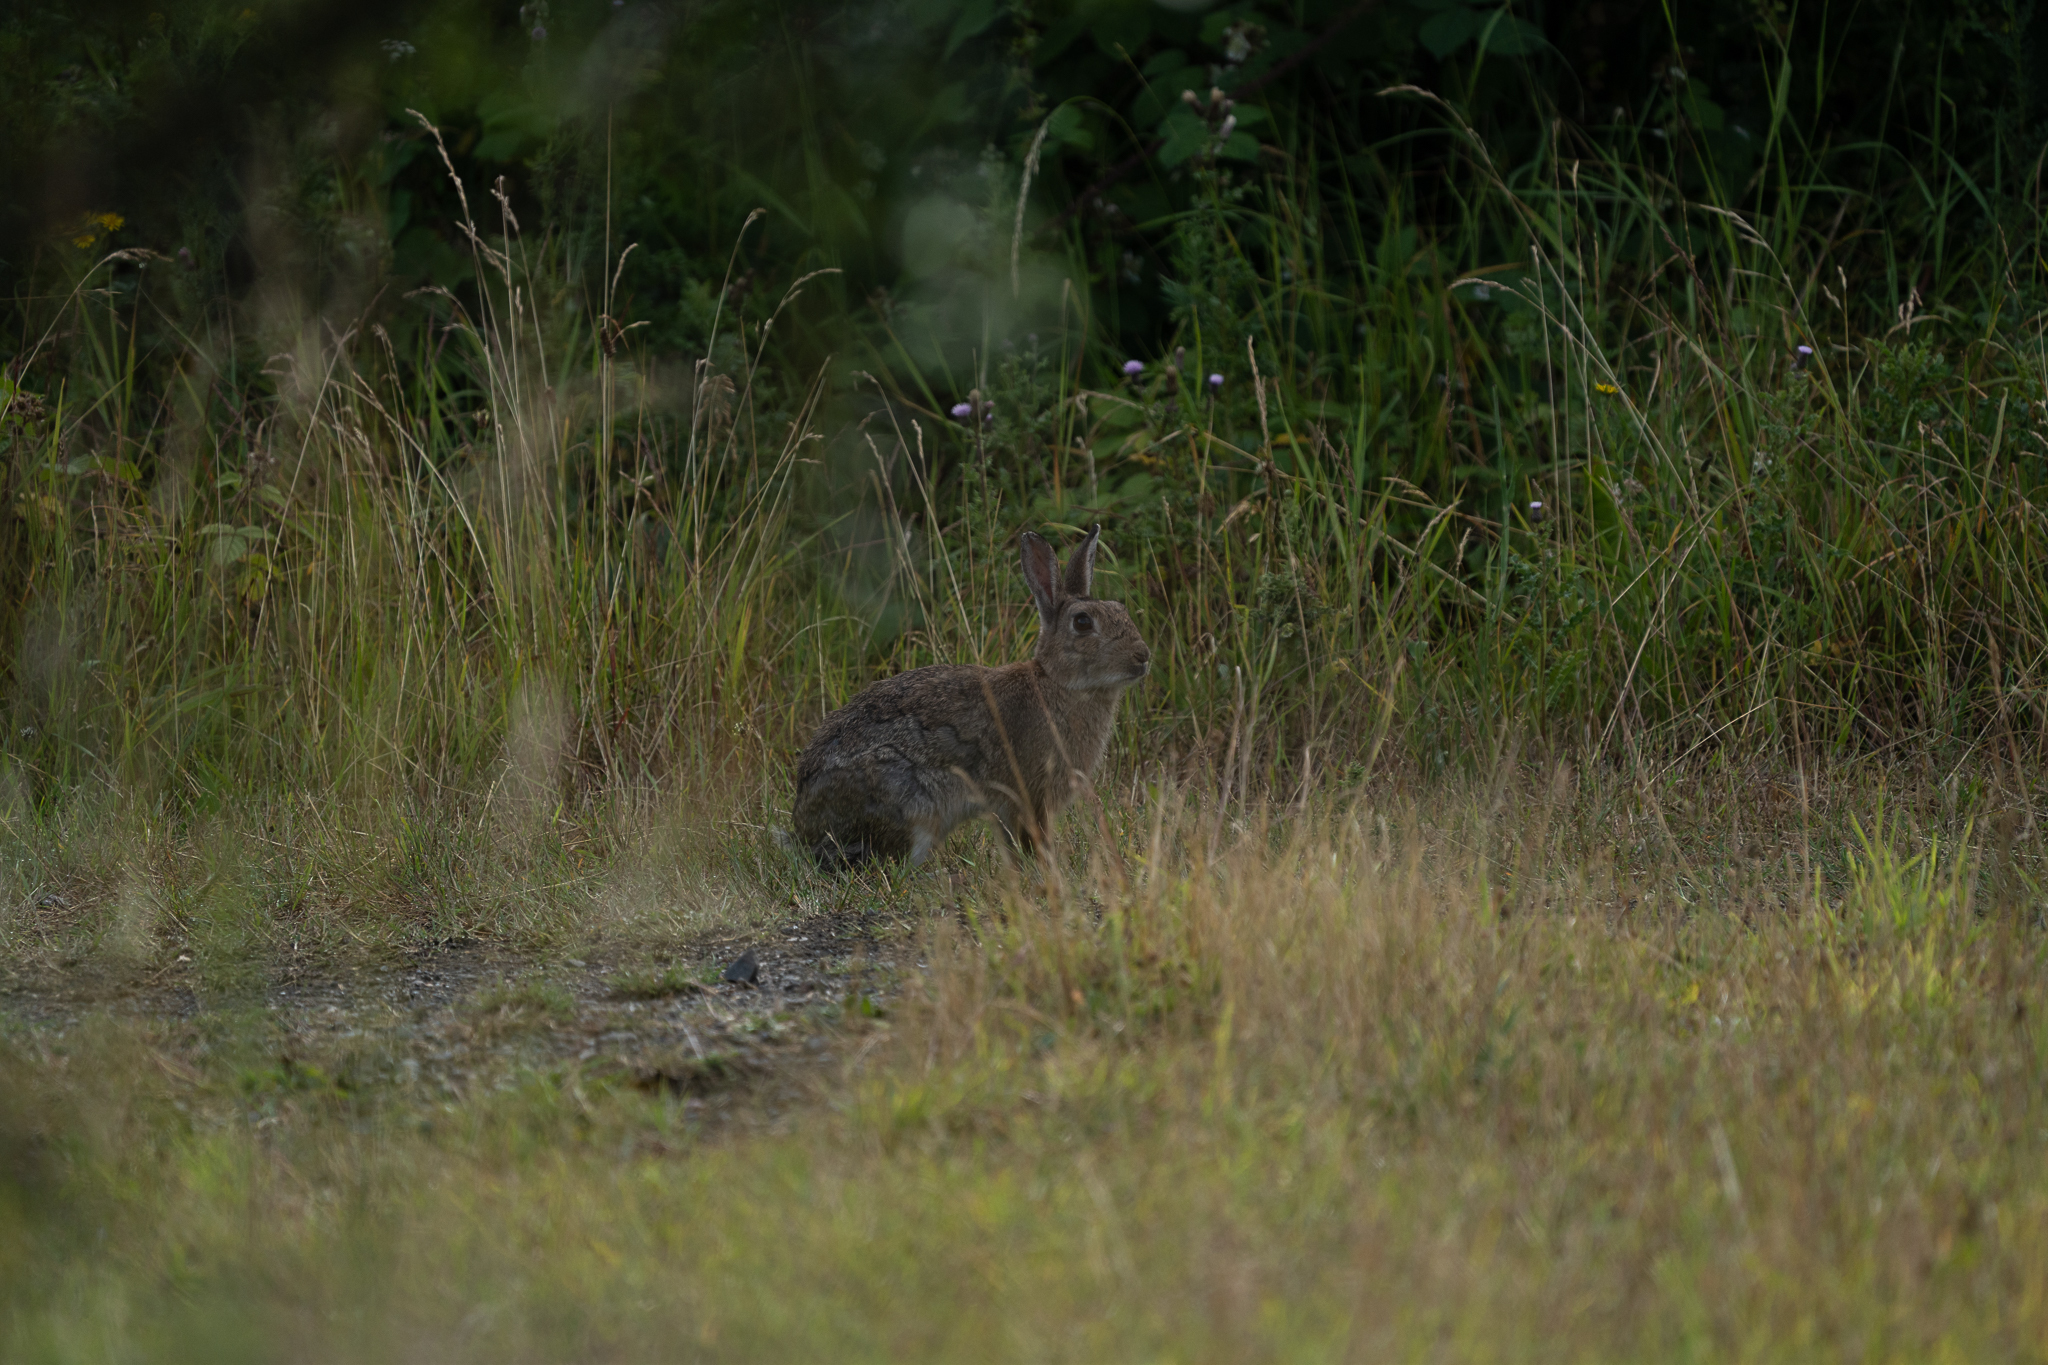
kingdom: Animalia
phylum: Chordata
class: Mammalia
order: Lagomorpha
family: Leporidae
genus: Oryctolagus
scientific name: Oryctolagus cuniculus
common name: European rabbit
